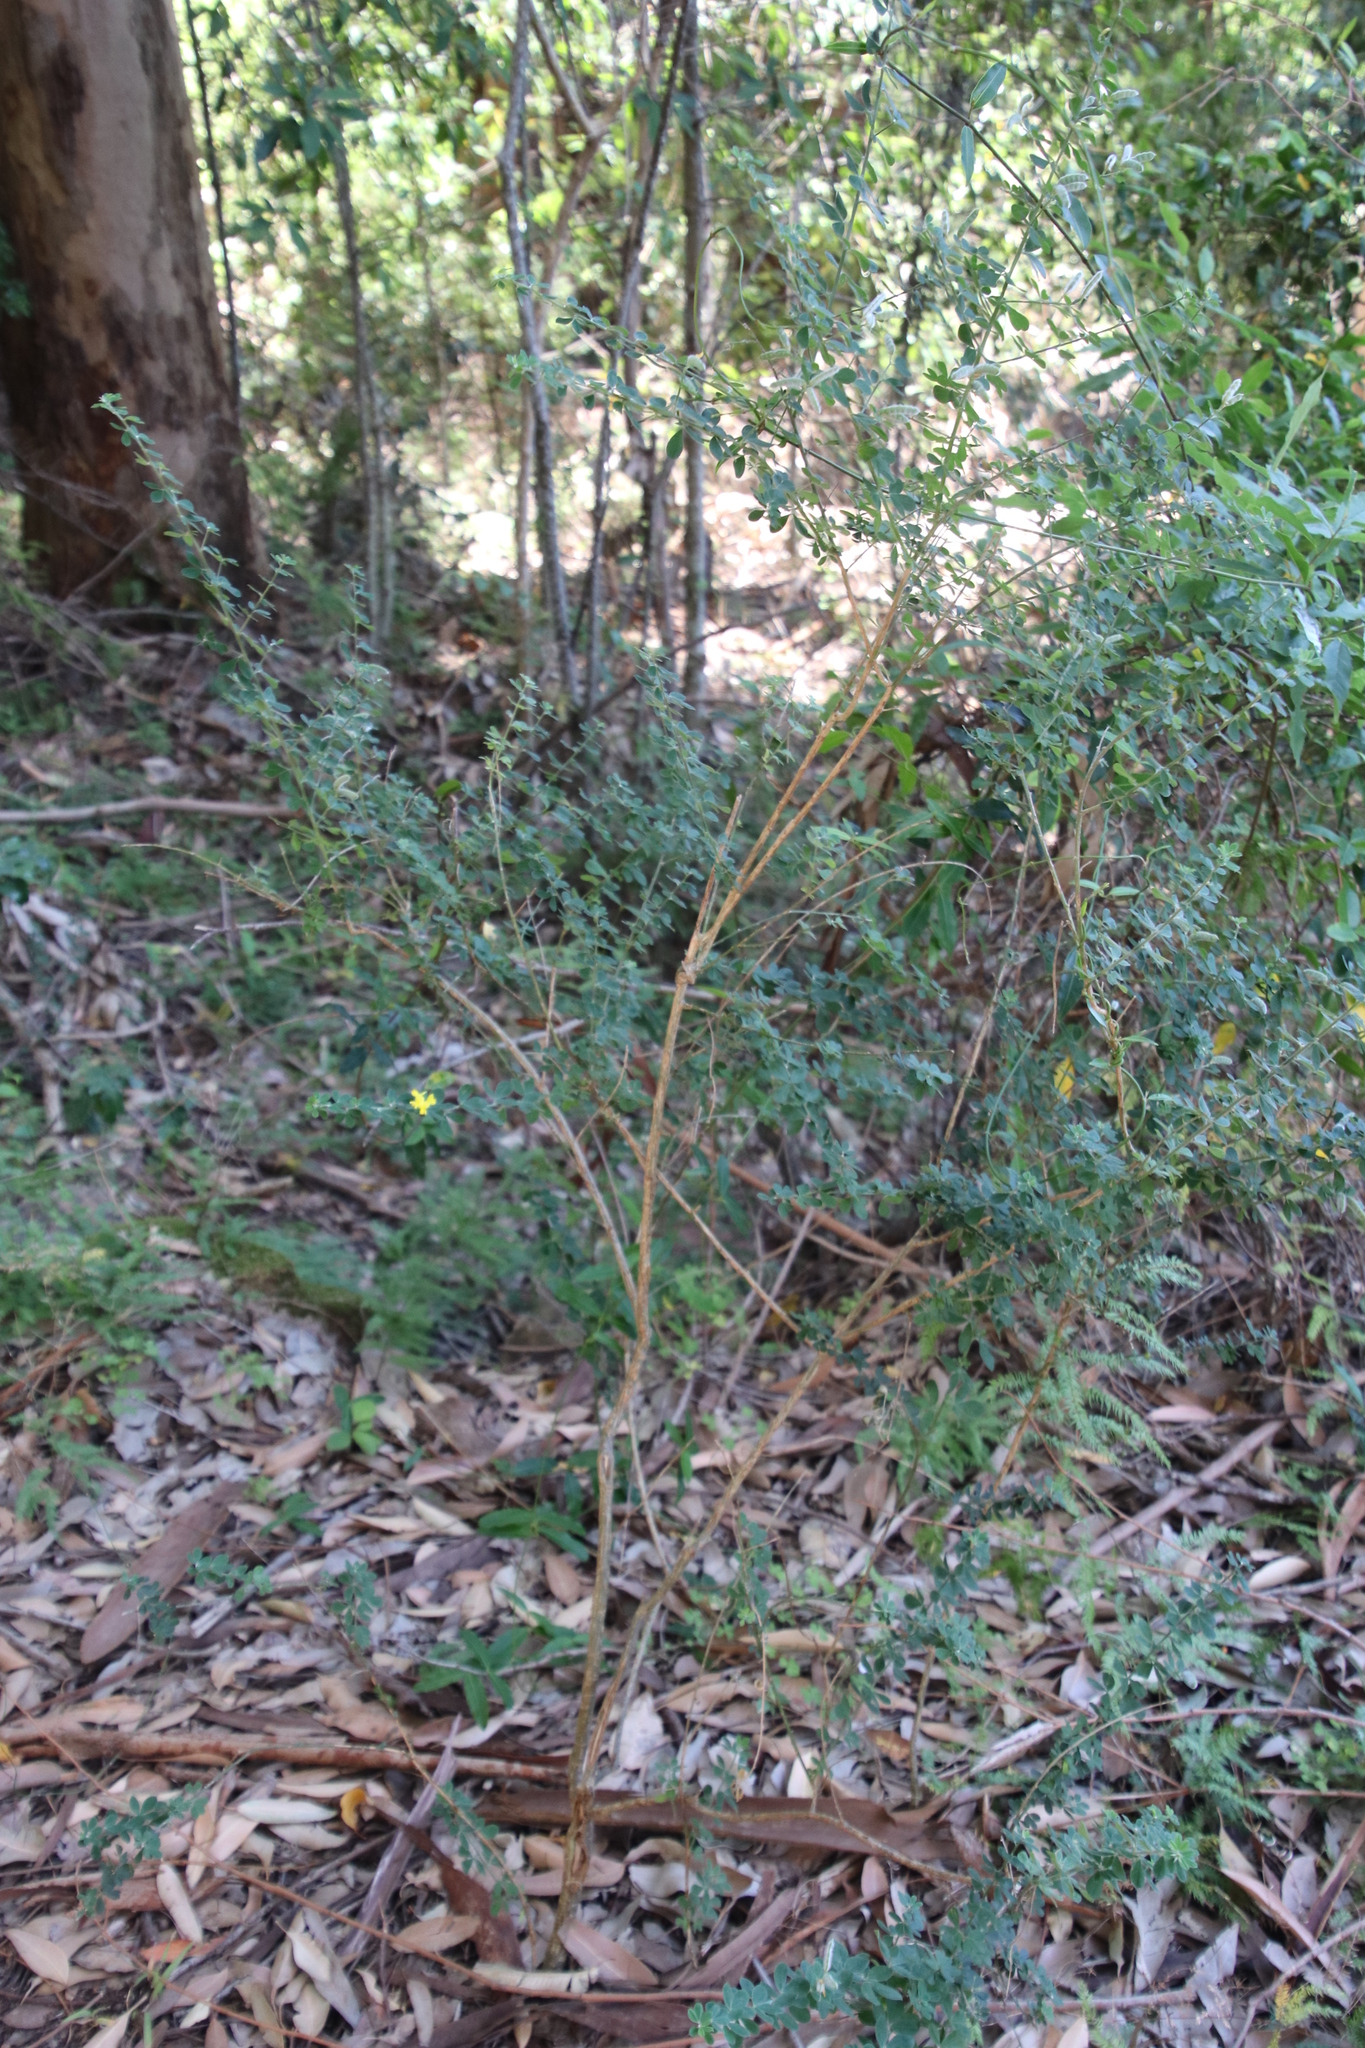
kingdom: Plantae
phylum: Tracheophyta
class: Magnoliopsida
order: Fabales
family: Fabaceae
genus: Genista
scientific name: Genista monspessulana
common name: Montpellier broom
